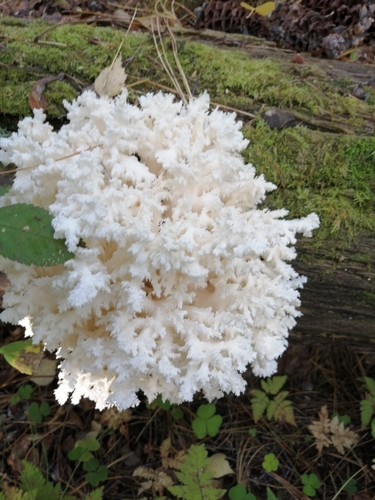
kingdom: Fungi
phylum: Basidiomycota
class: Agaricomycetes
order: Russulales
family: Hericiaceae
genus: Hericium
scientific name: Hericium coralloides
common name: Coral tooth
